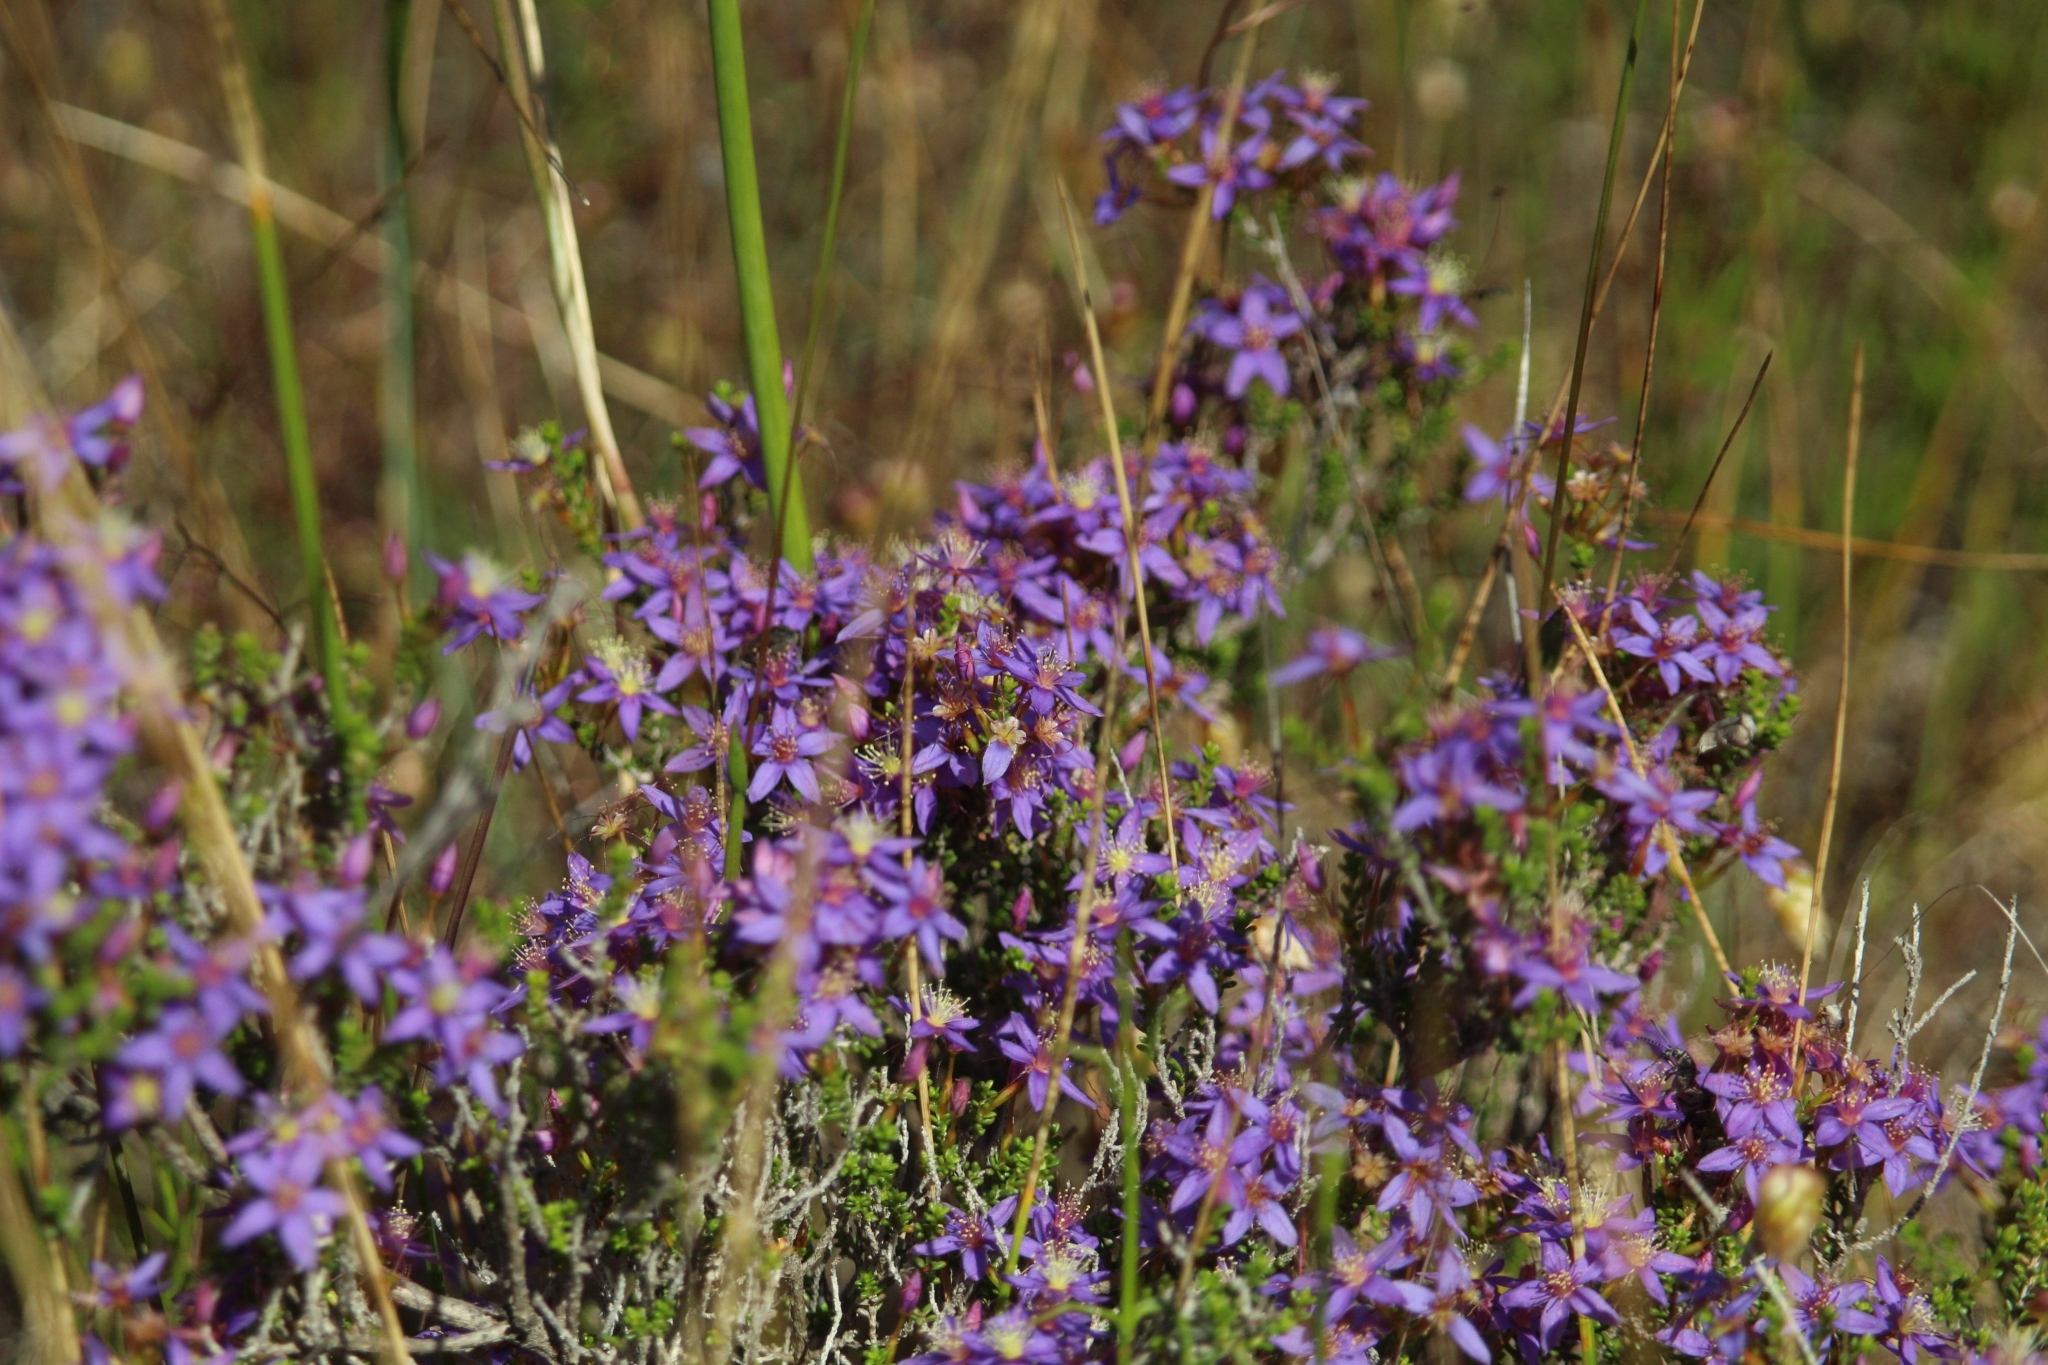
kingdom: Plantae
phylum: Tracheophyta
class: Magnoliopsida
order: Myrtales
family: Myrtaceae
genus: Calytrix
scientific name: Calytrix leschenaultii
